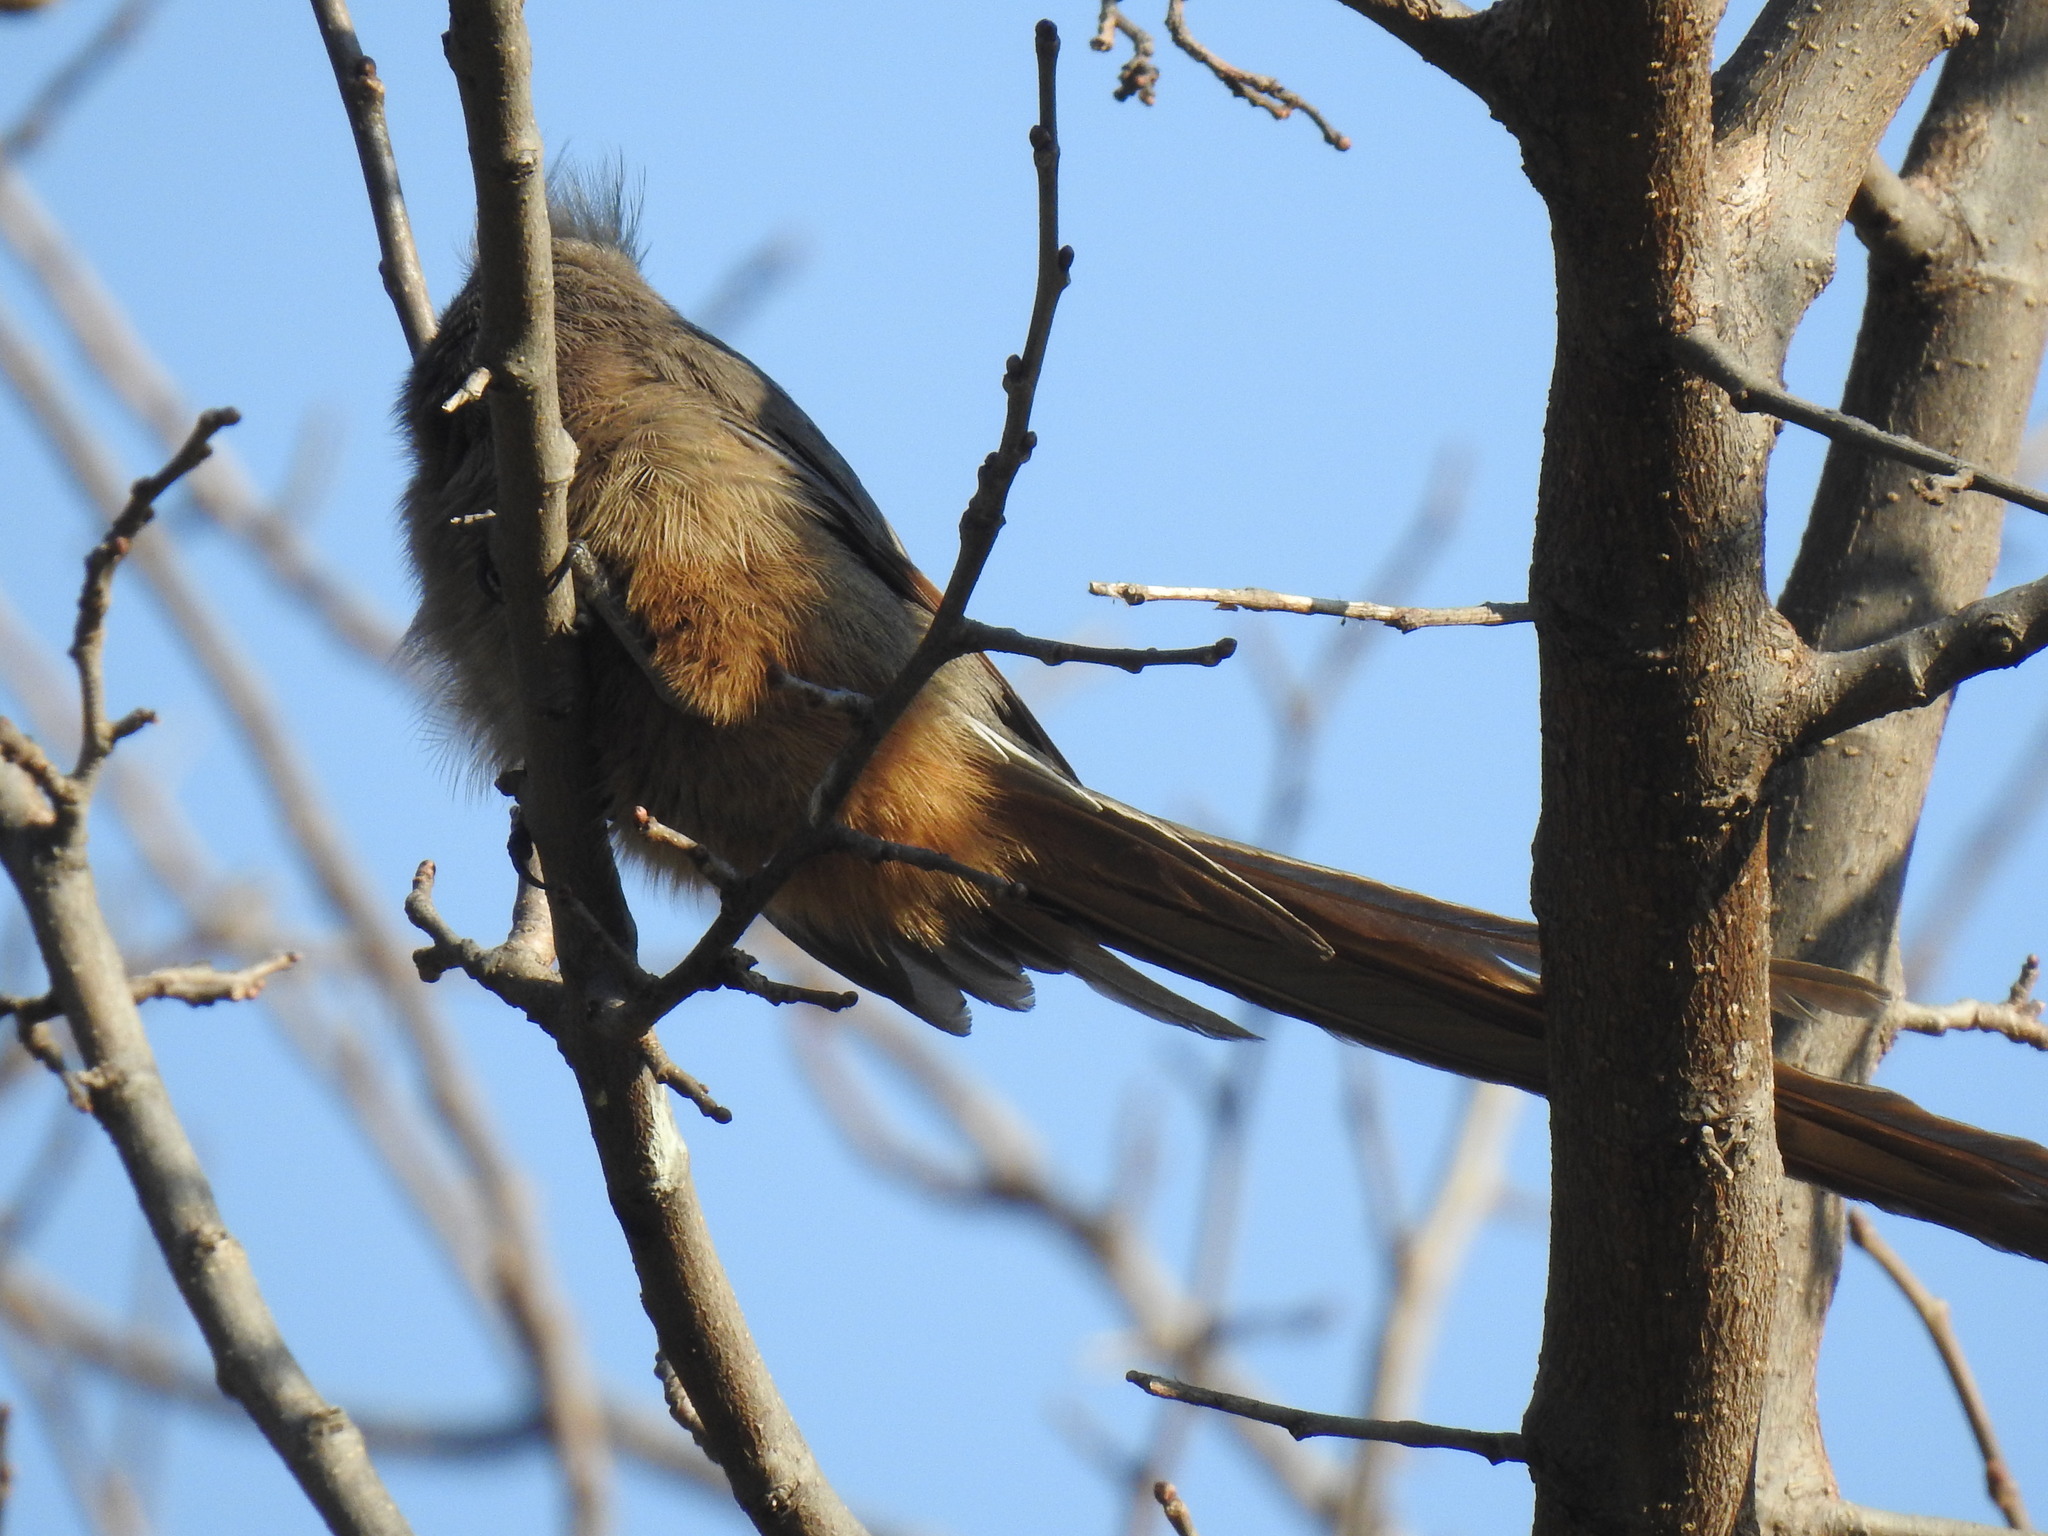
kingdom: Animalia
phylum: Chordata
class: Aves
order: Coliiformes
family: Coliidae
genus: Colius
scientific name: Colius striatus
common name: Speckled mousebird
